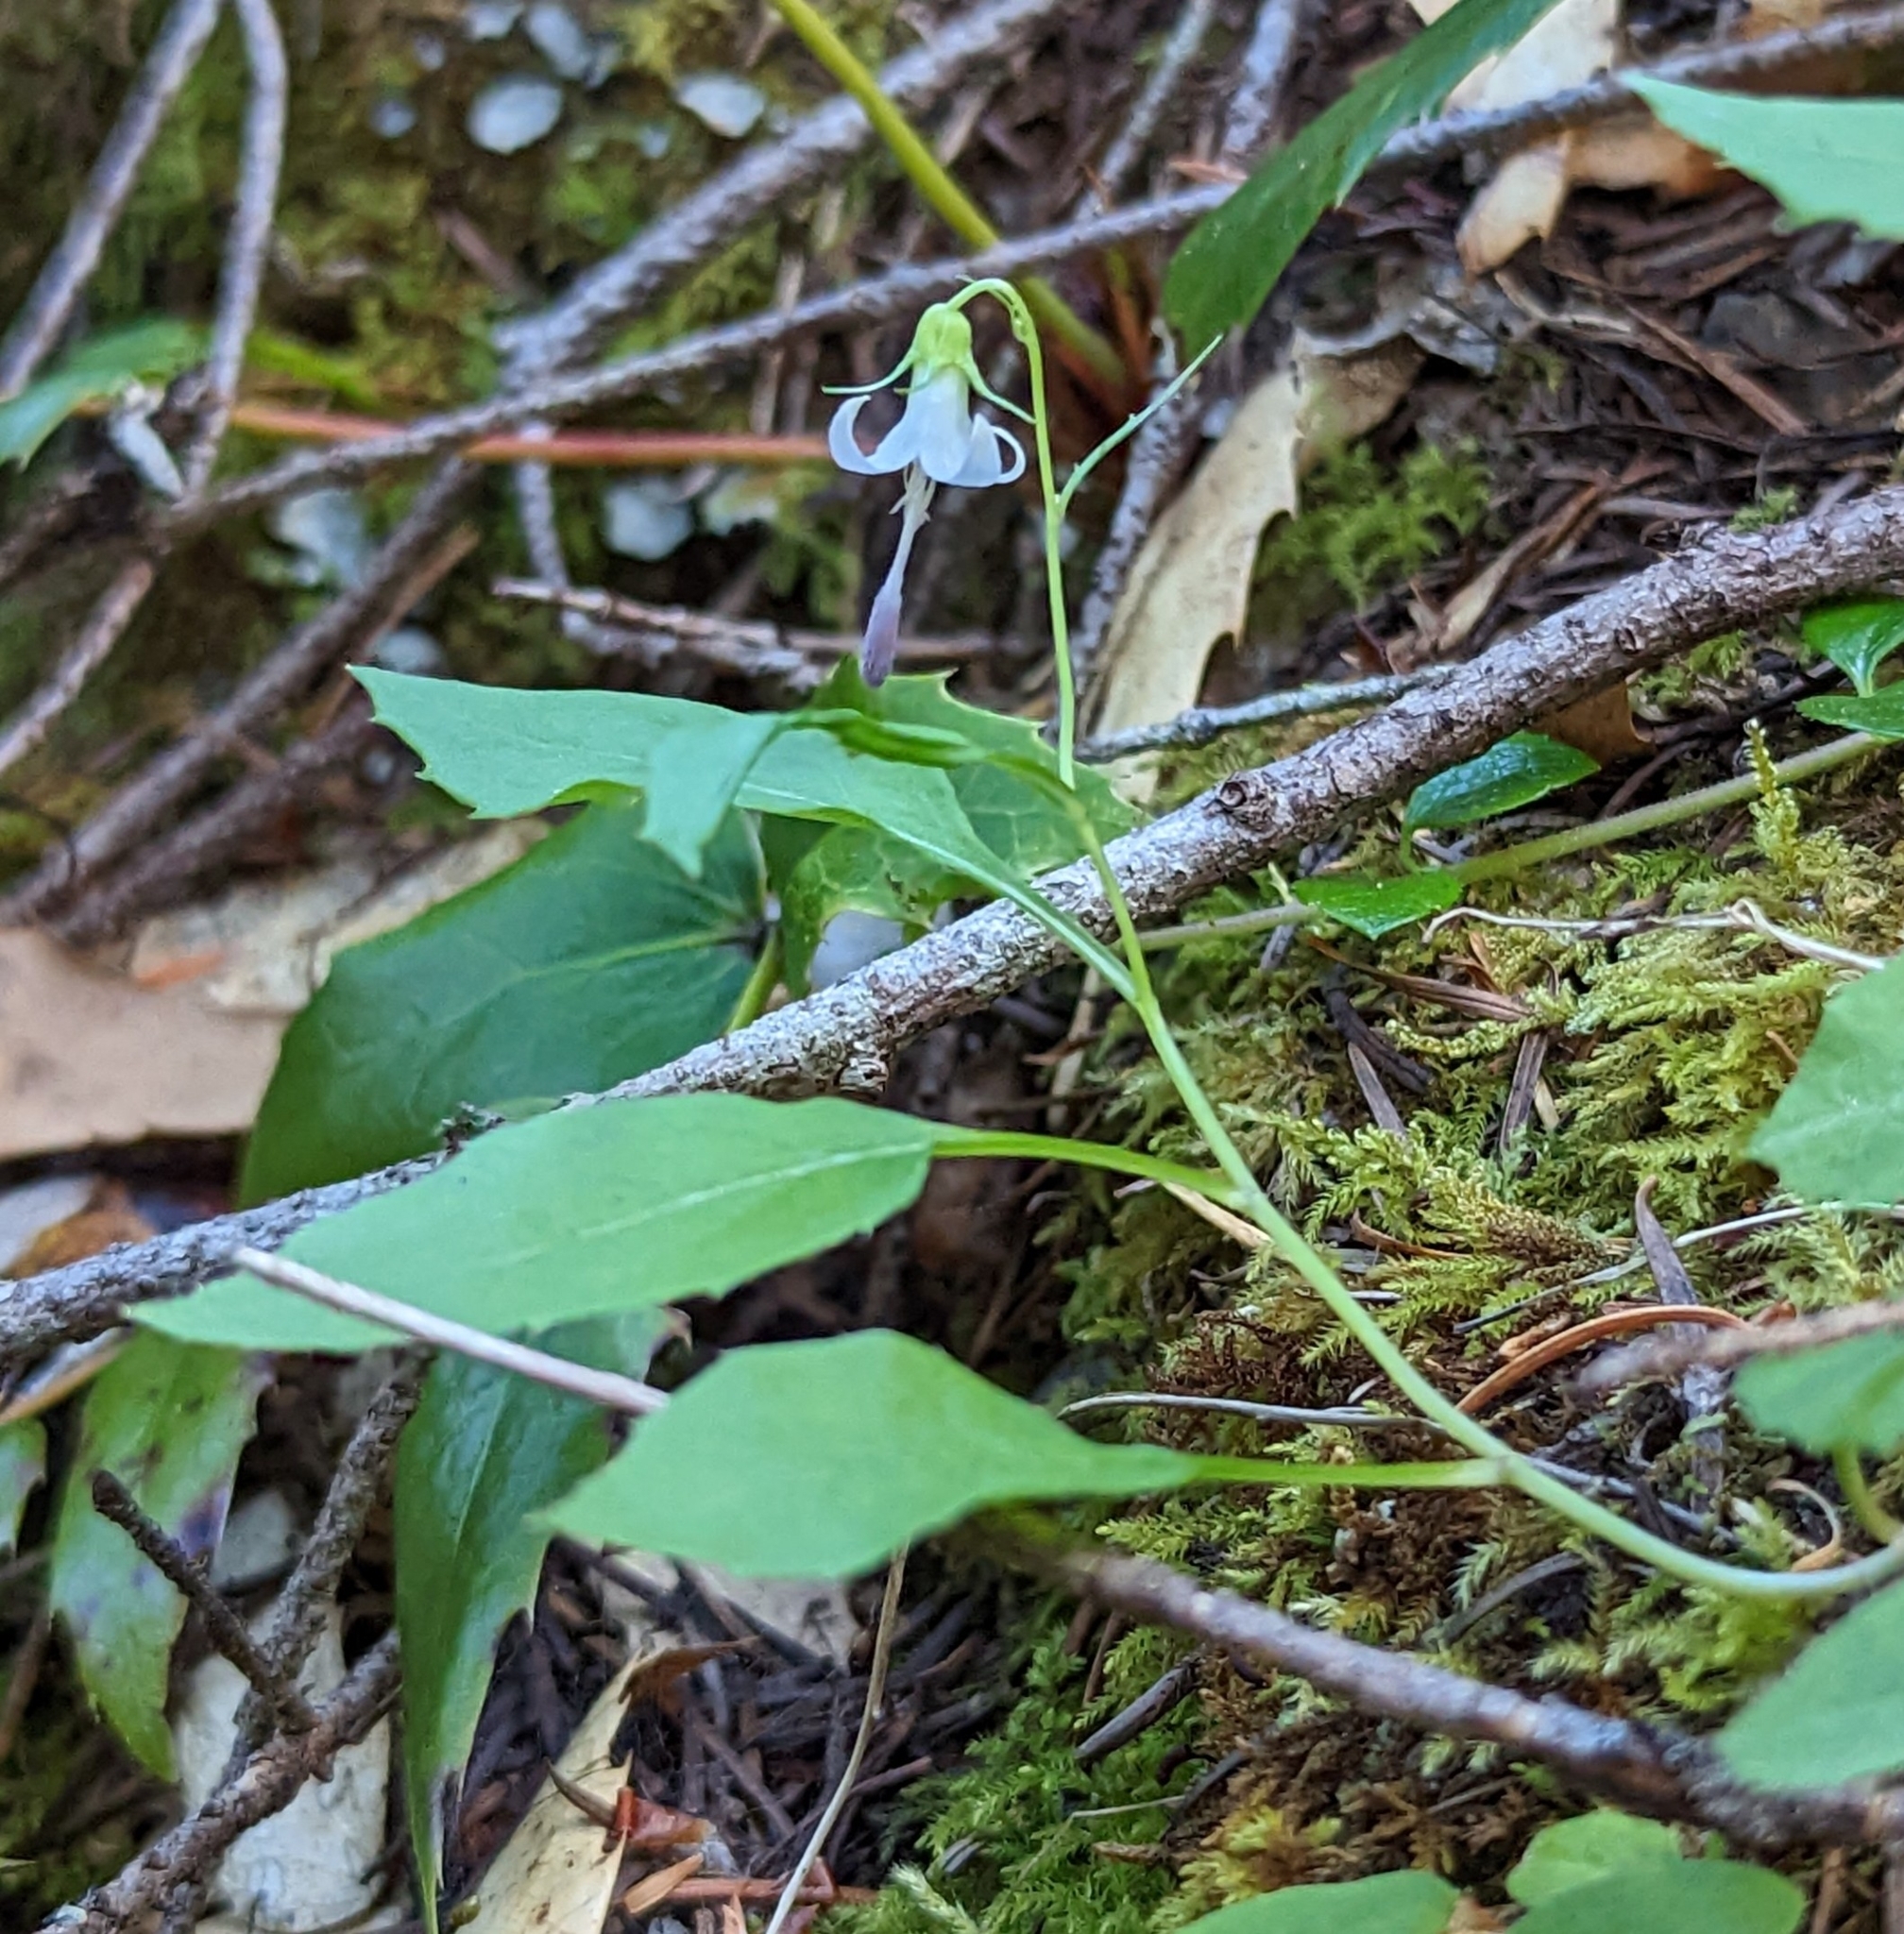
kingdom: Plantae
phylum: Tracheophyta
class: Magnoliopsida
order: Asterales
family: Campanulaceae
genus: Campanula
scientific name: Campanula scouleri
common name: Scouler's harebell
